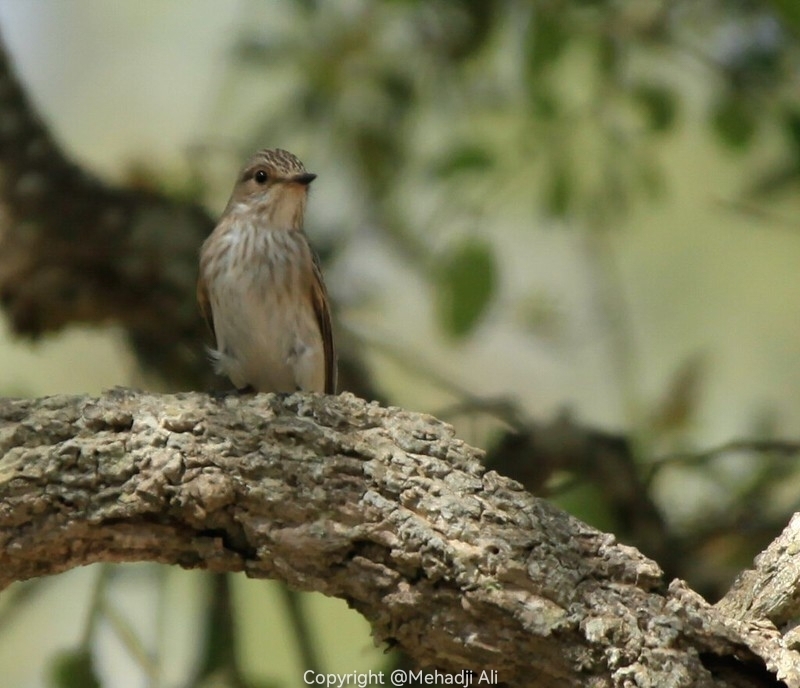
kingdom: Animalia
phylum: Chordata
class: Aves
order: Passeriformes
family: Muscicapidae
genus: Muscicapa
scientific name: Muscicapa striata
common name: Spotted flycatcher
